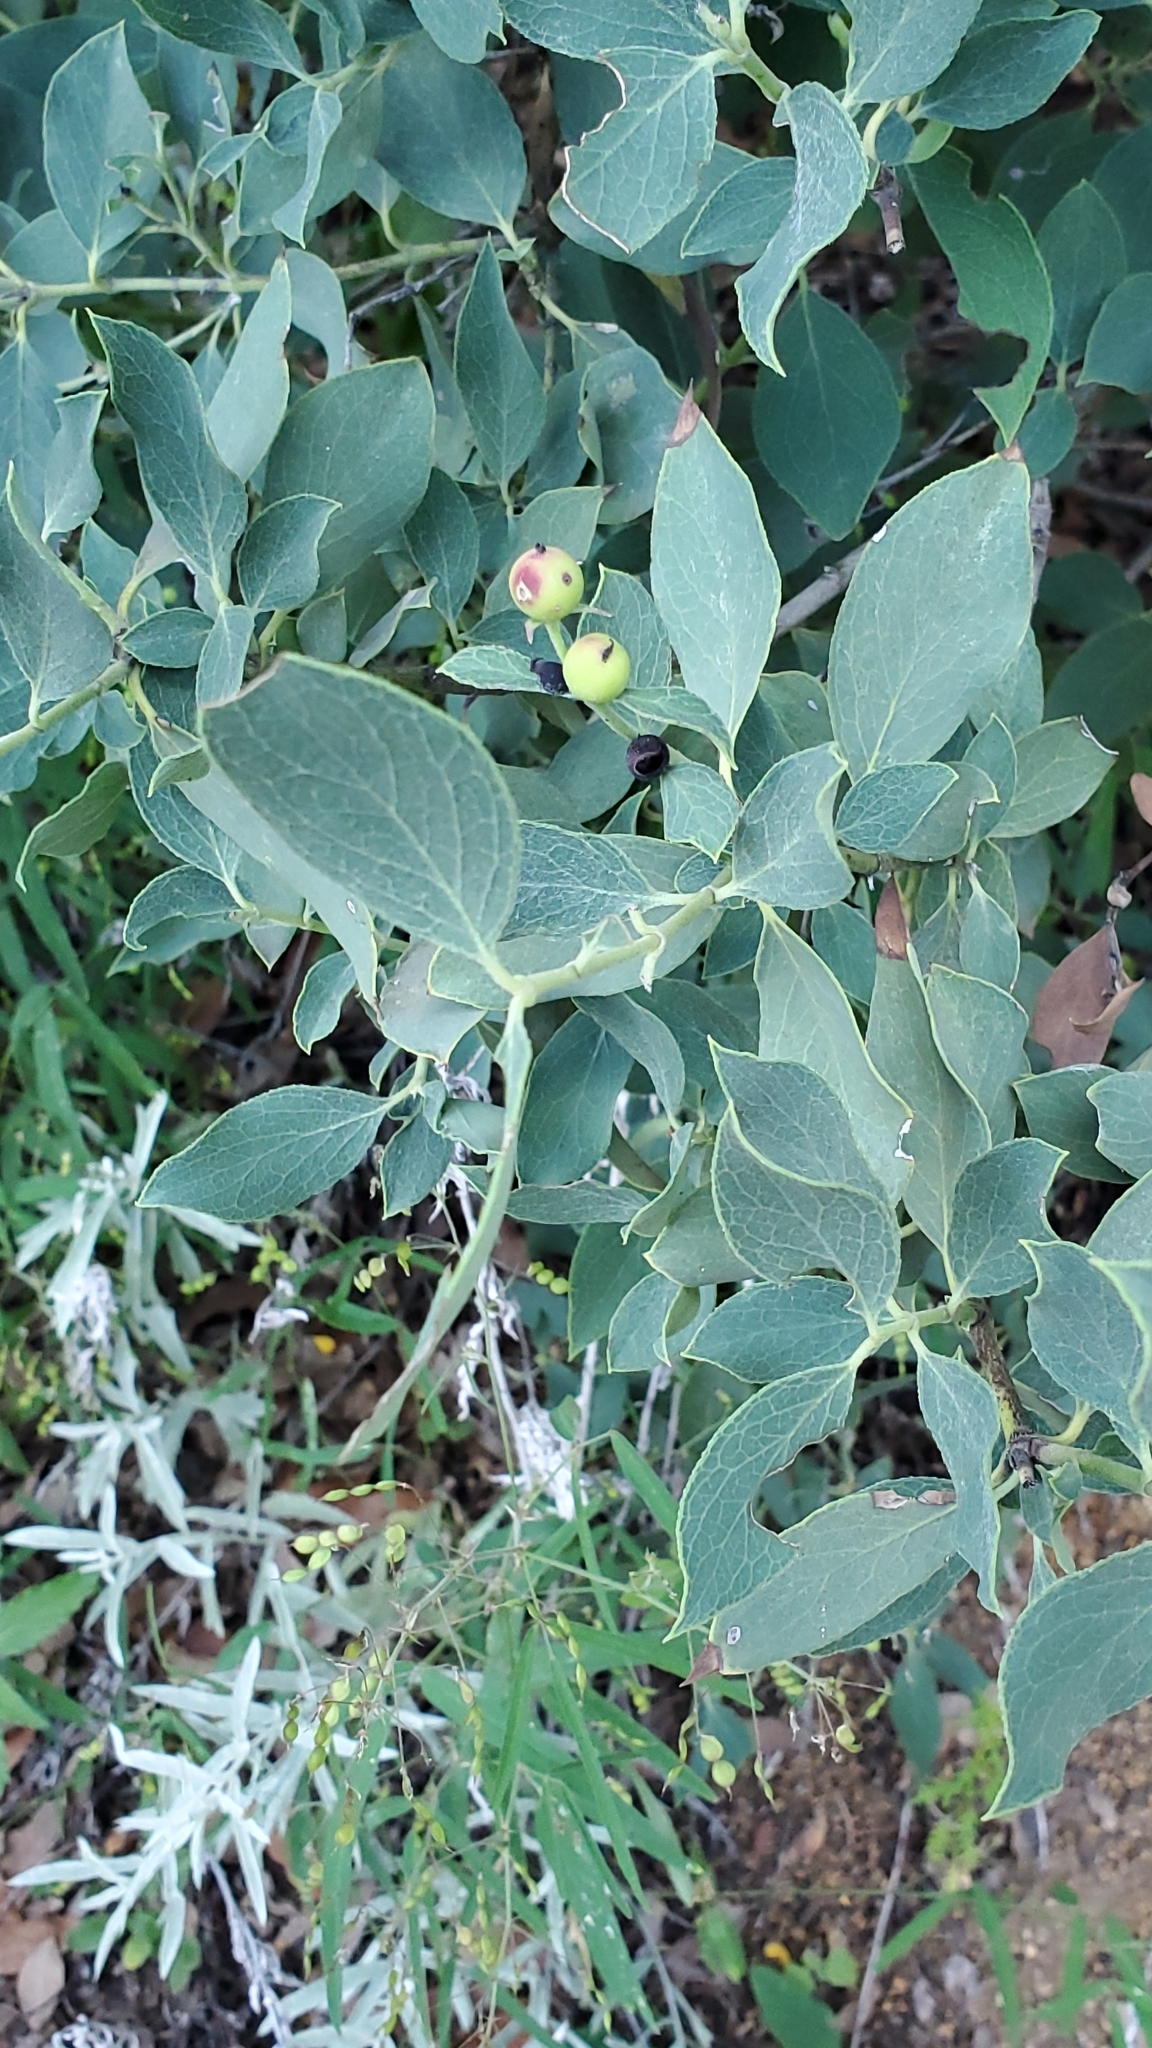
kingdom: Plantae
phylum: Tracheophyta
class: Magnoliopsida
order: Garryales
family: Garryaceae
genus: Garrya
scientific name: Garrya wrightii
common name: Wright's silktassel
